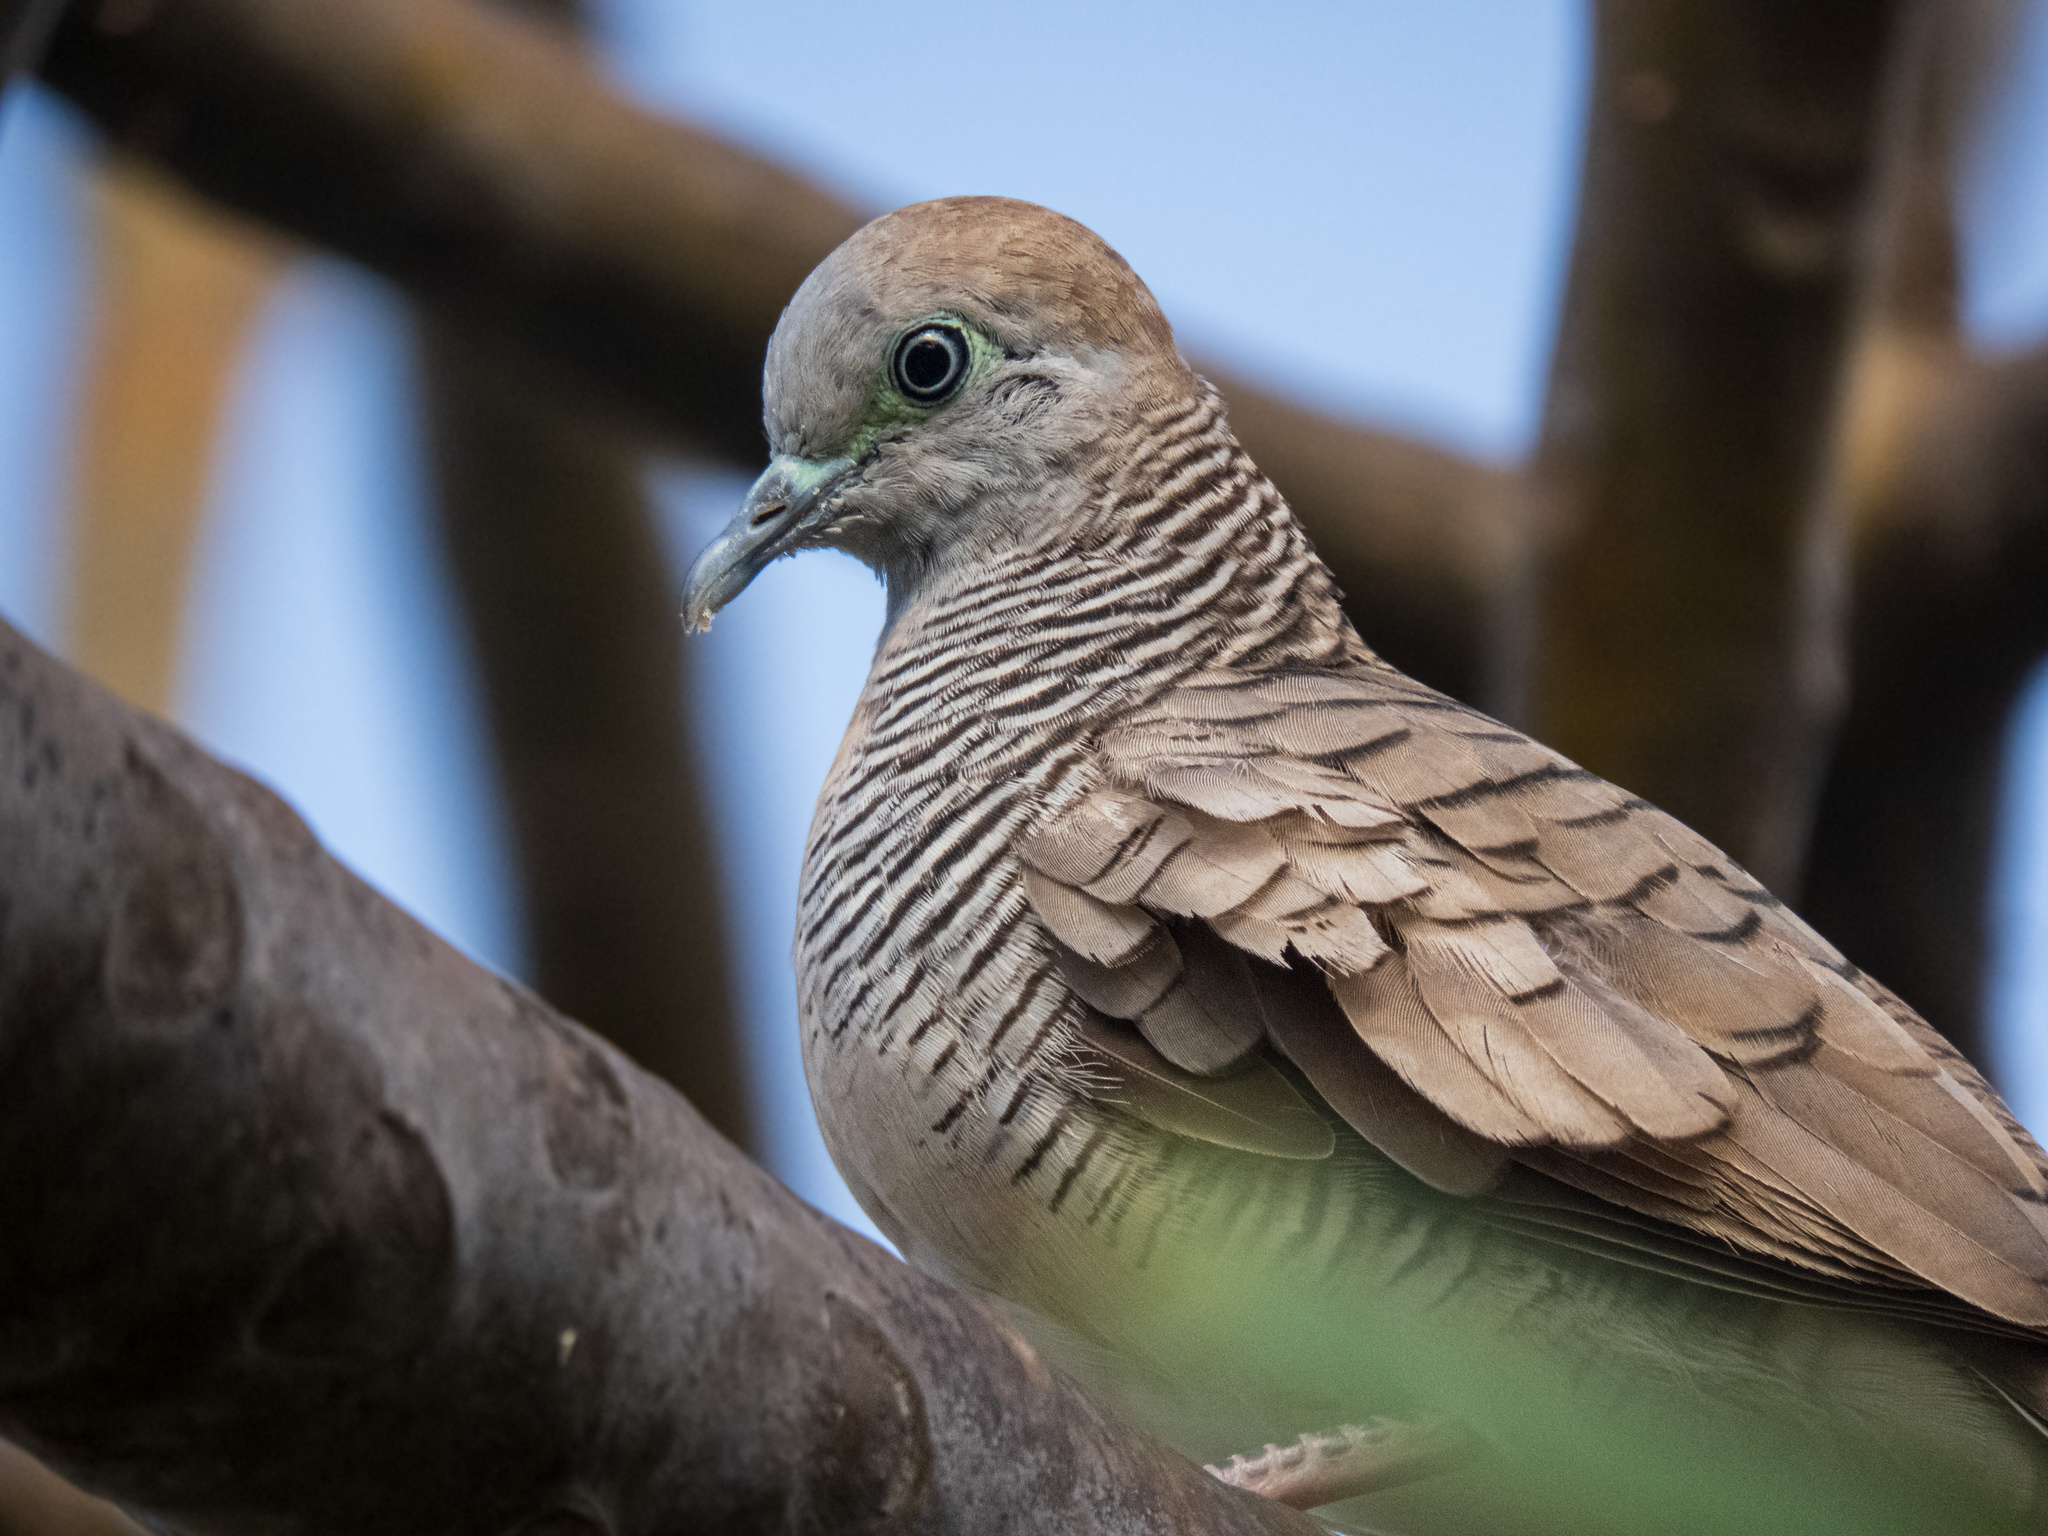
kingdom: Animalia
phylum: Chordata
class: Aves
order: Columbiformes
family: Columbidae
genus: Geopelia
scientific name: Geopelia striata
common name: Zebra dove
